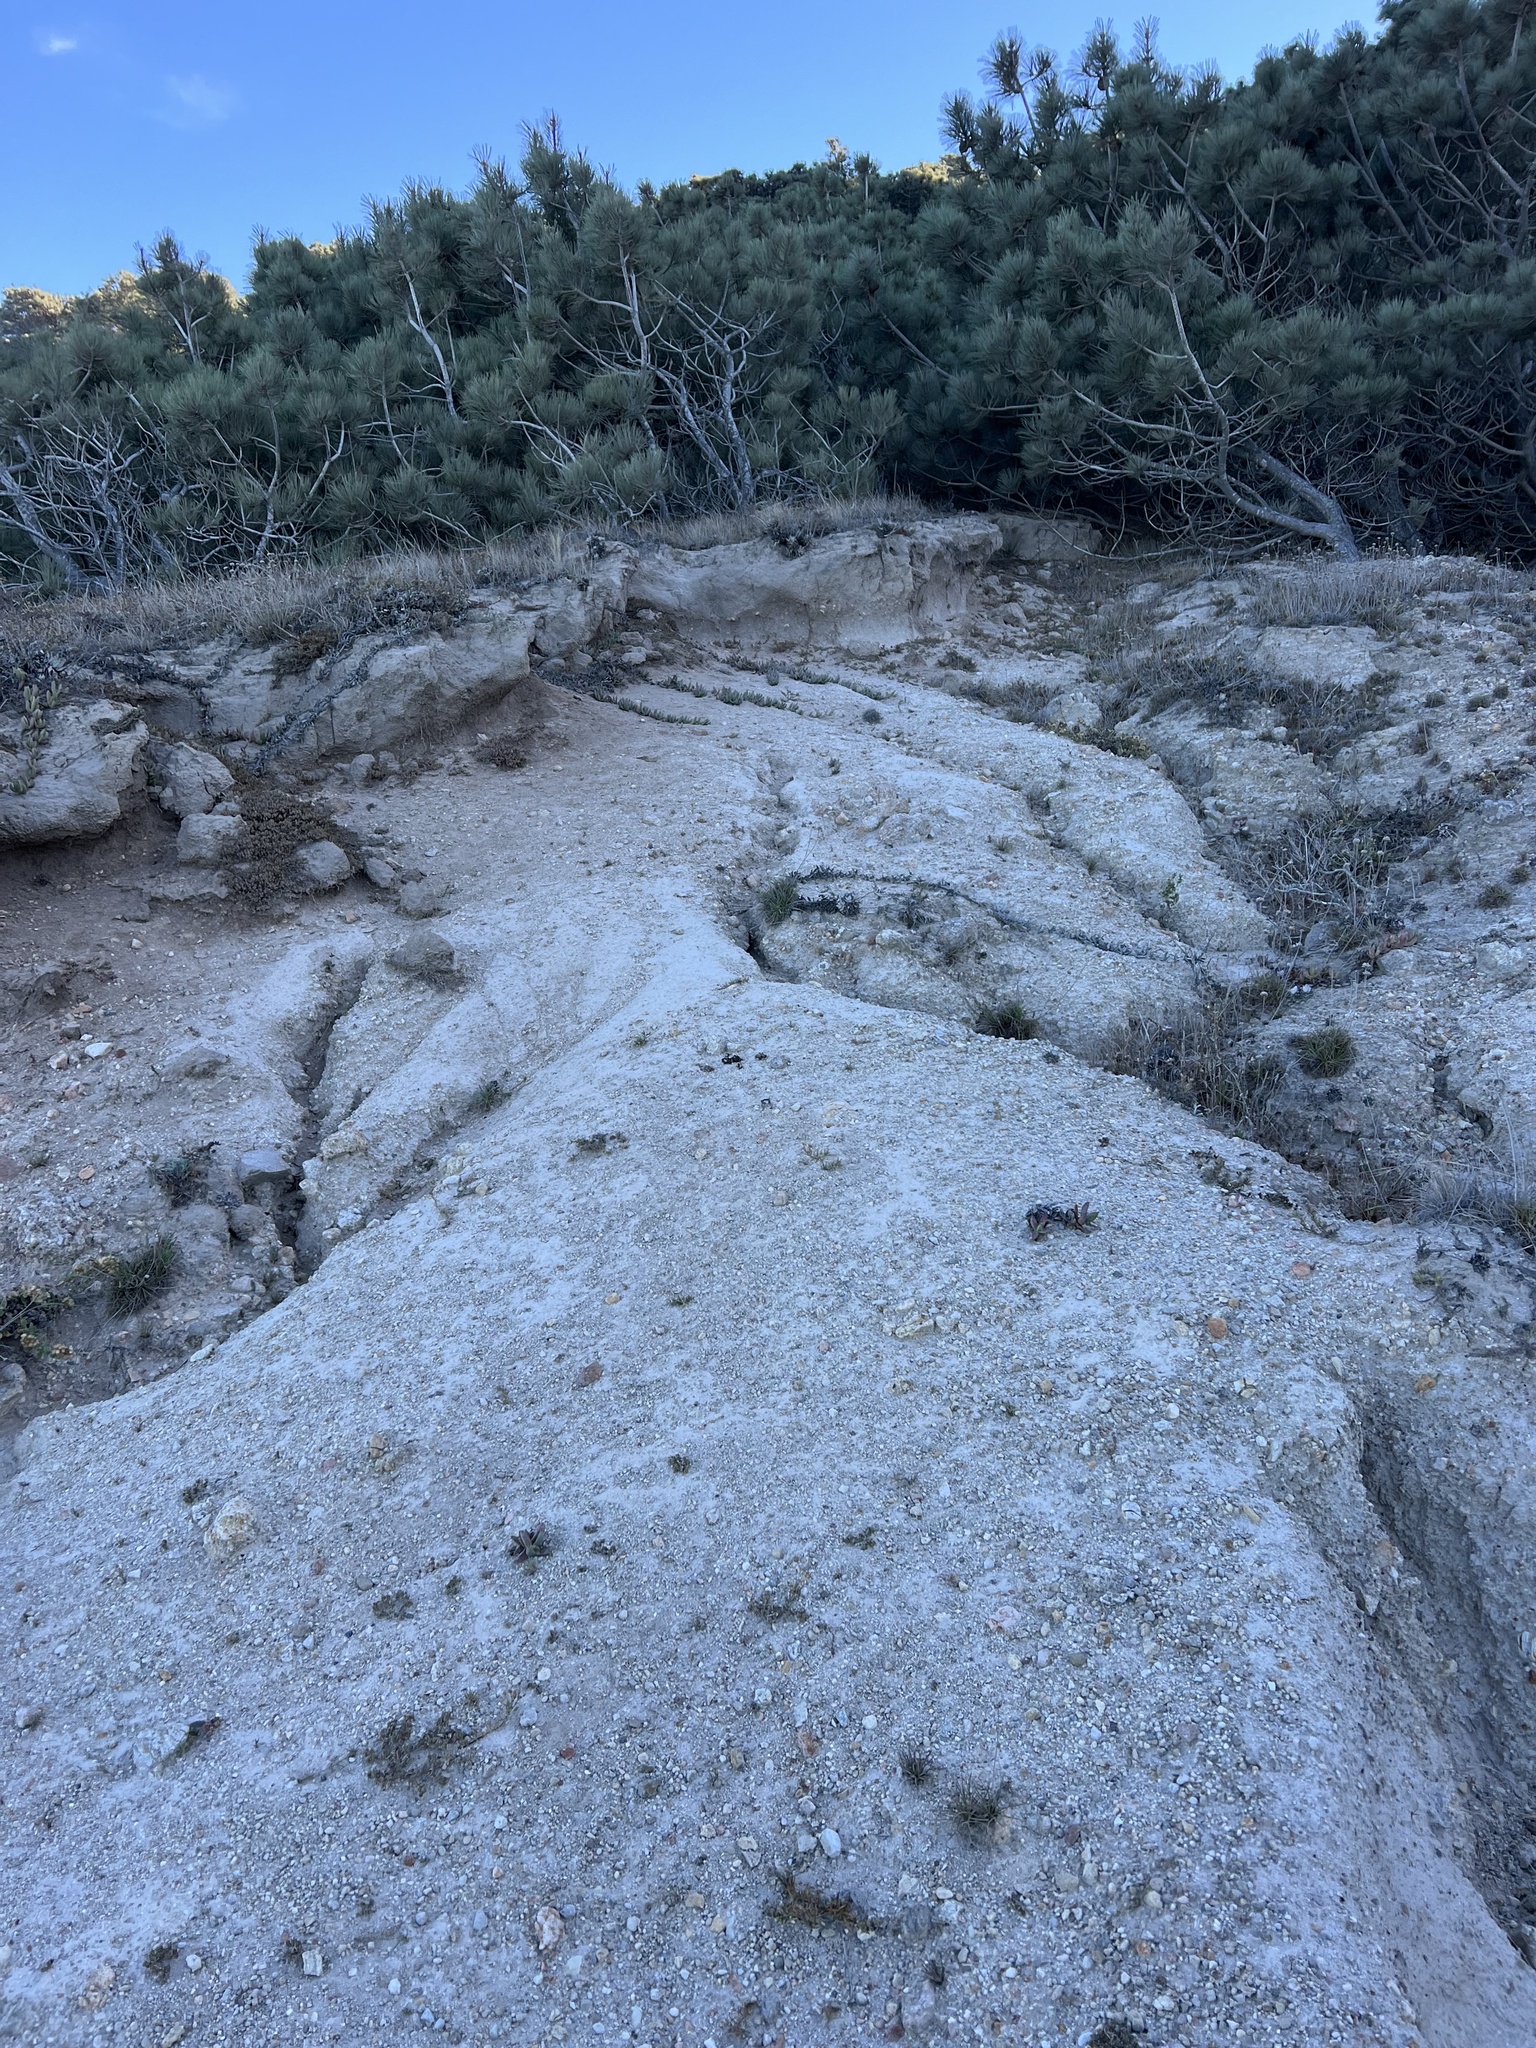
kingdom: Animalia
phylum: Chordata
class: Mammalia
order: Carnivora
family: Canidae
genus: Urocyon
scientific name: Urocyon littoralis
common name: Island gray fox
